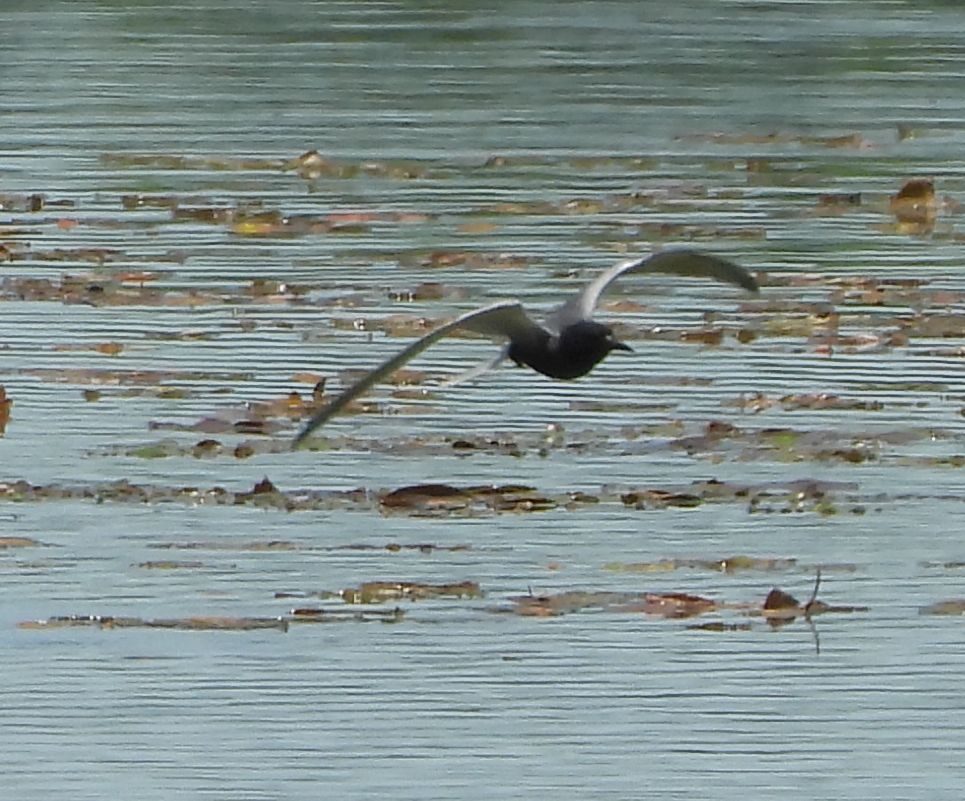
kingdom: Animalia
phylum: Chordata
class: Aves
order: Charadriiformes
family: Laridae
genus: Chlidonias
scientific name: Chlidonias niger
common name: Black tern
